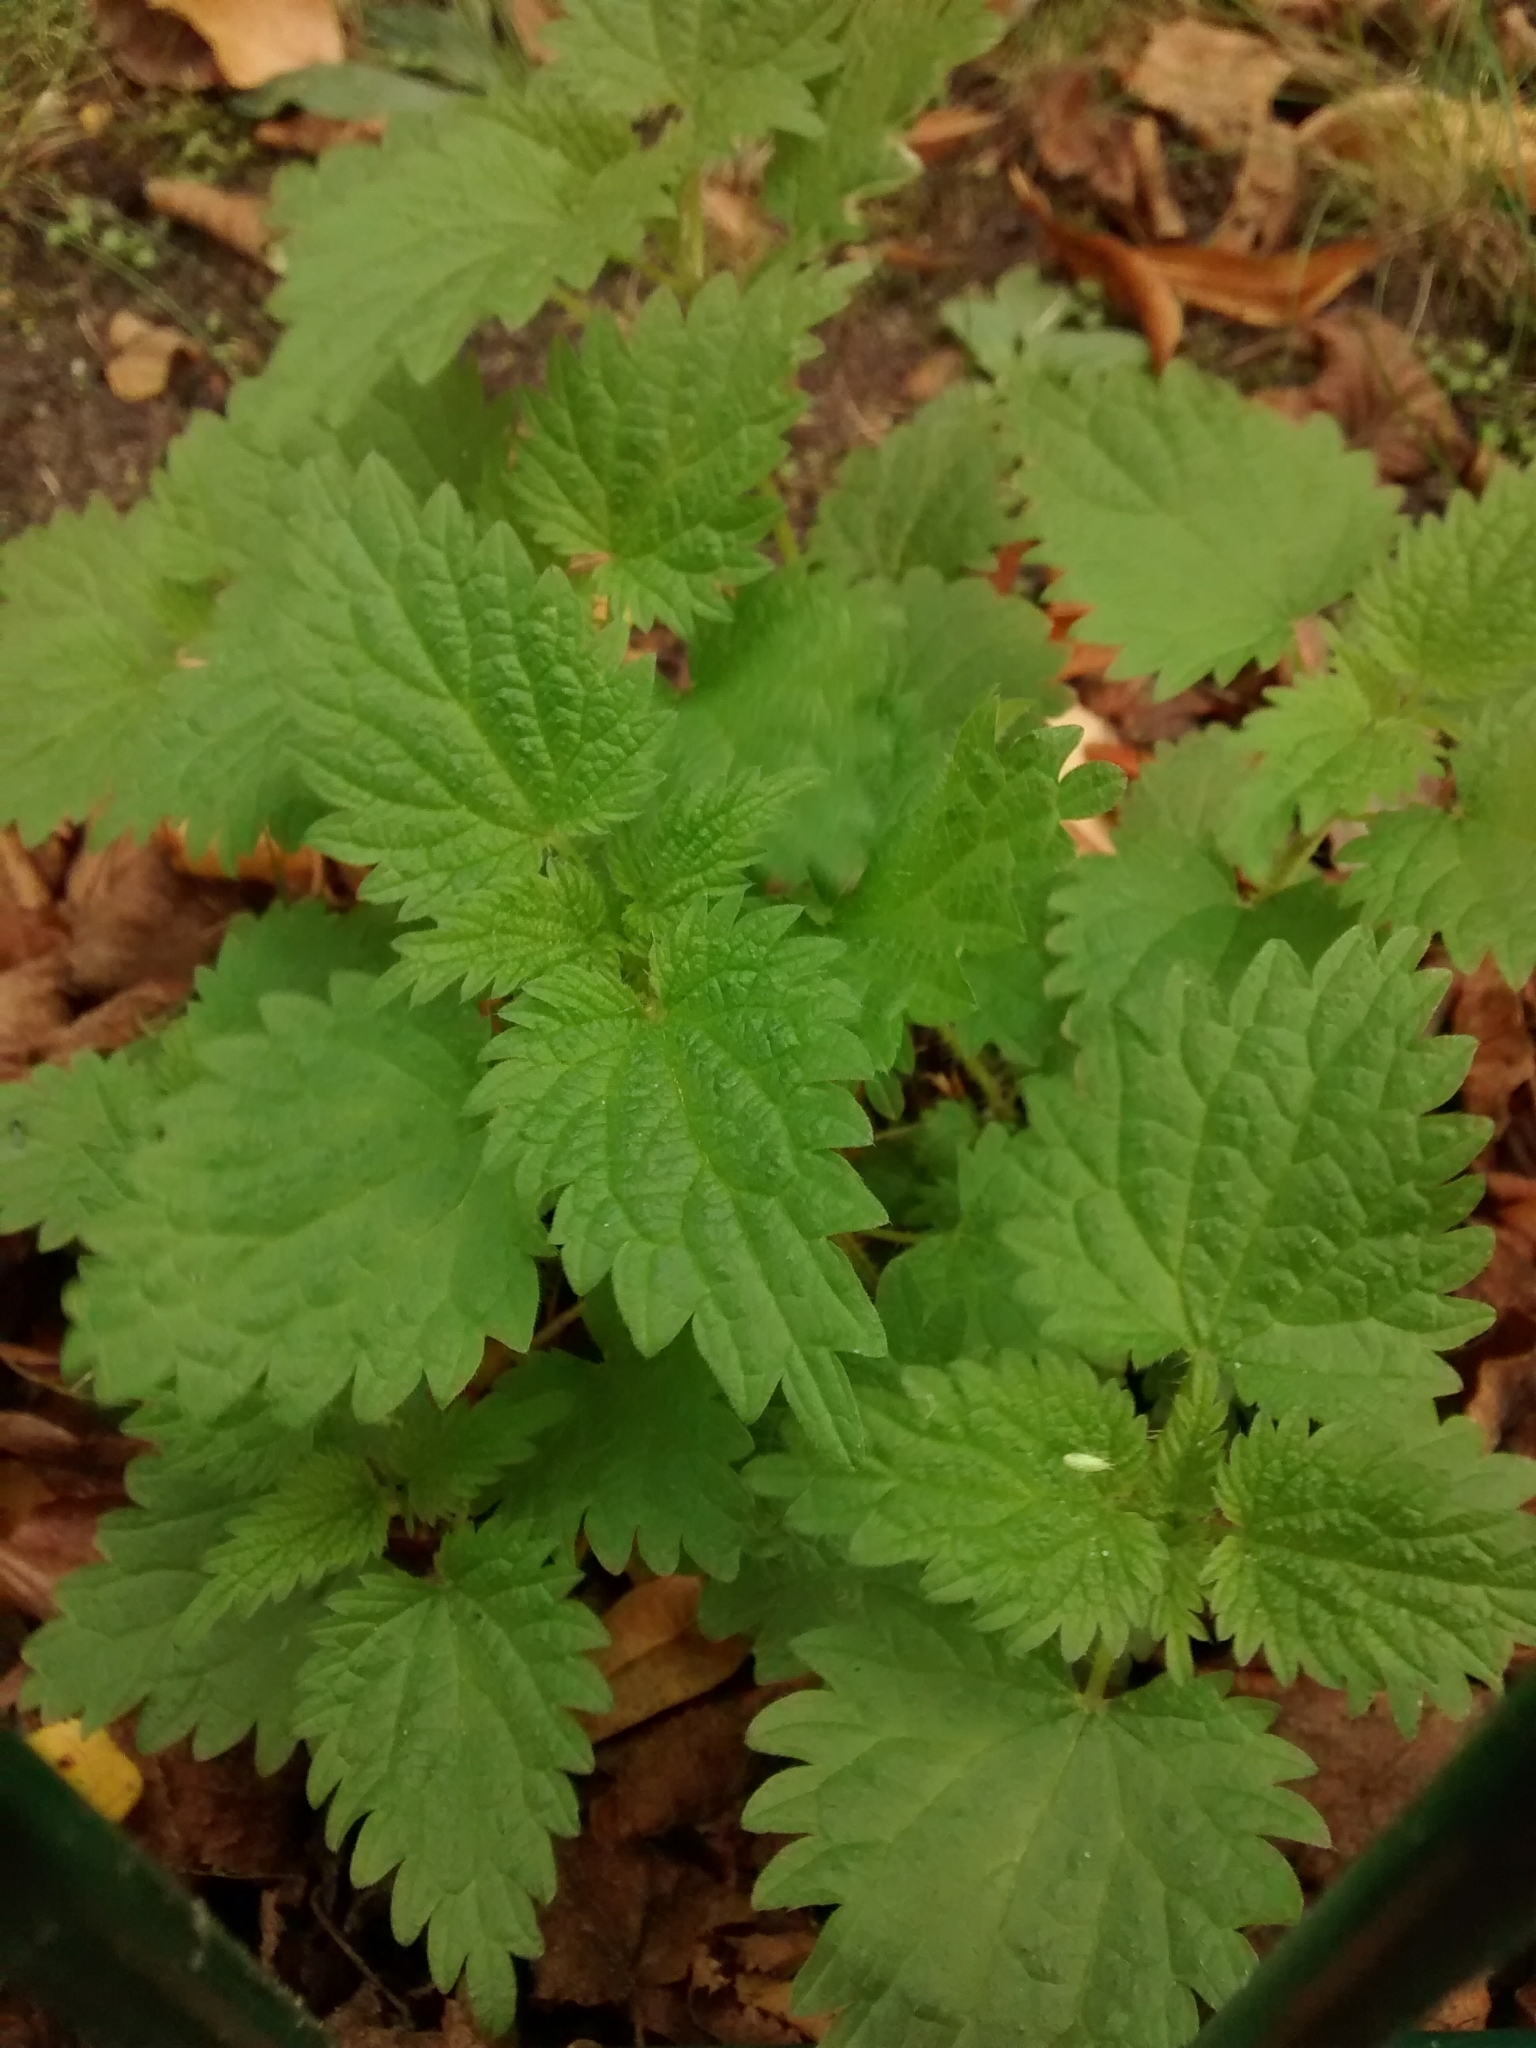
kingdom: Plantae
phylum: Tracheophyta
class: Magnoliopsida
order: Rosales
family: Urticaceae
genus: Urtica
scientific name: Urtica dioica
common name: Common nettle
